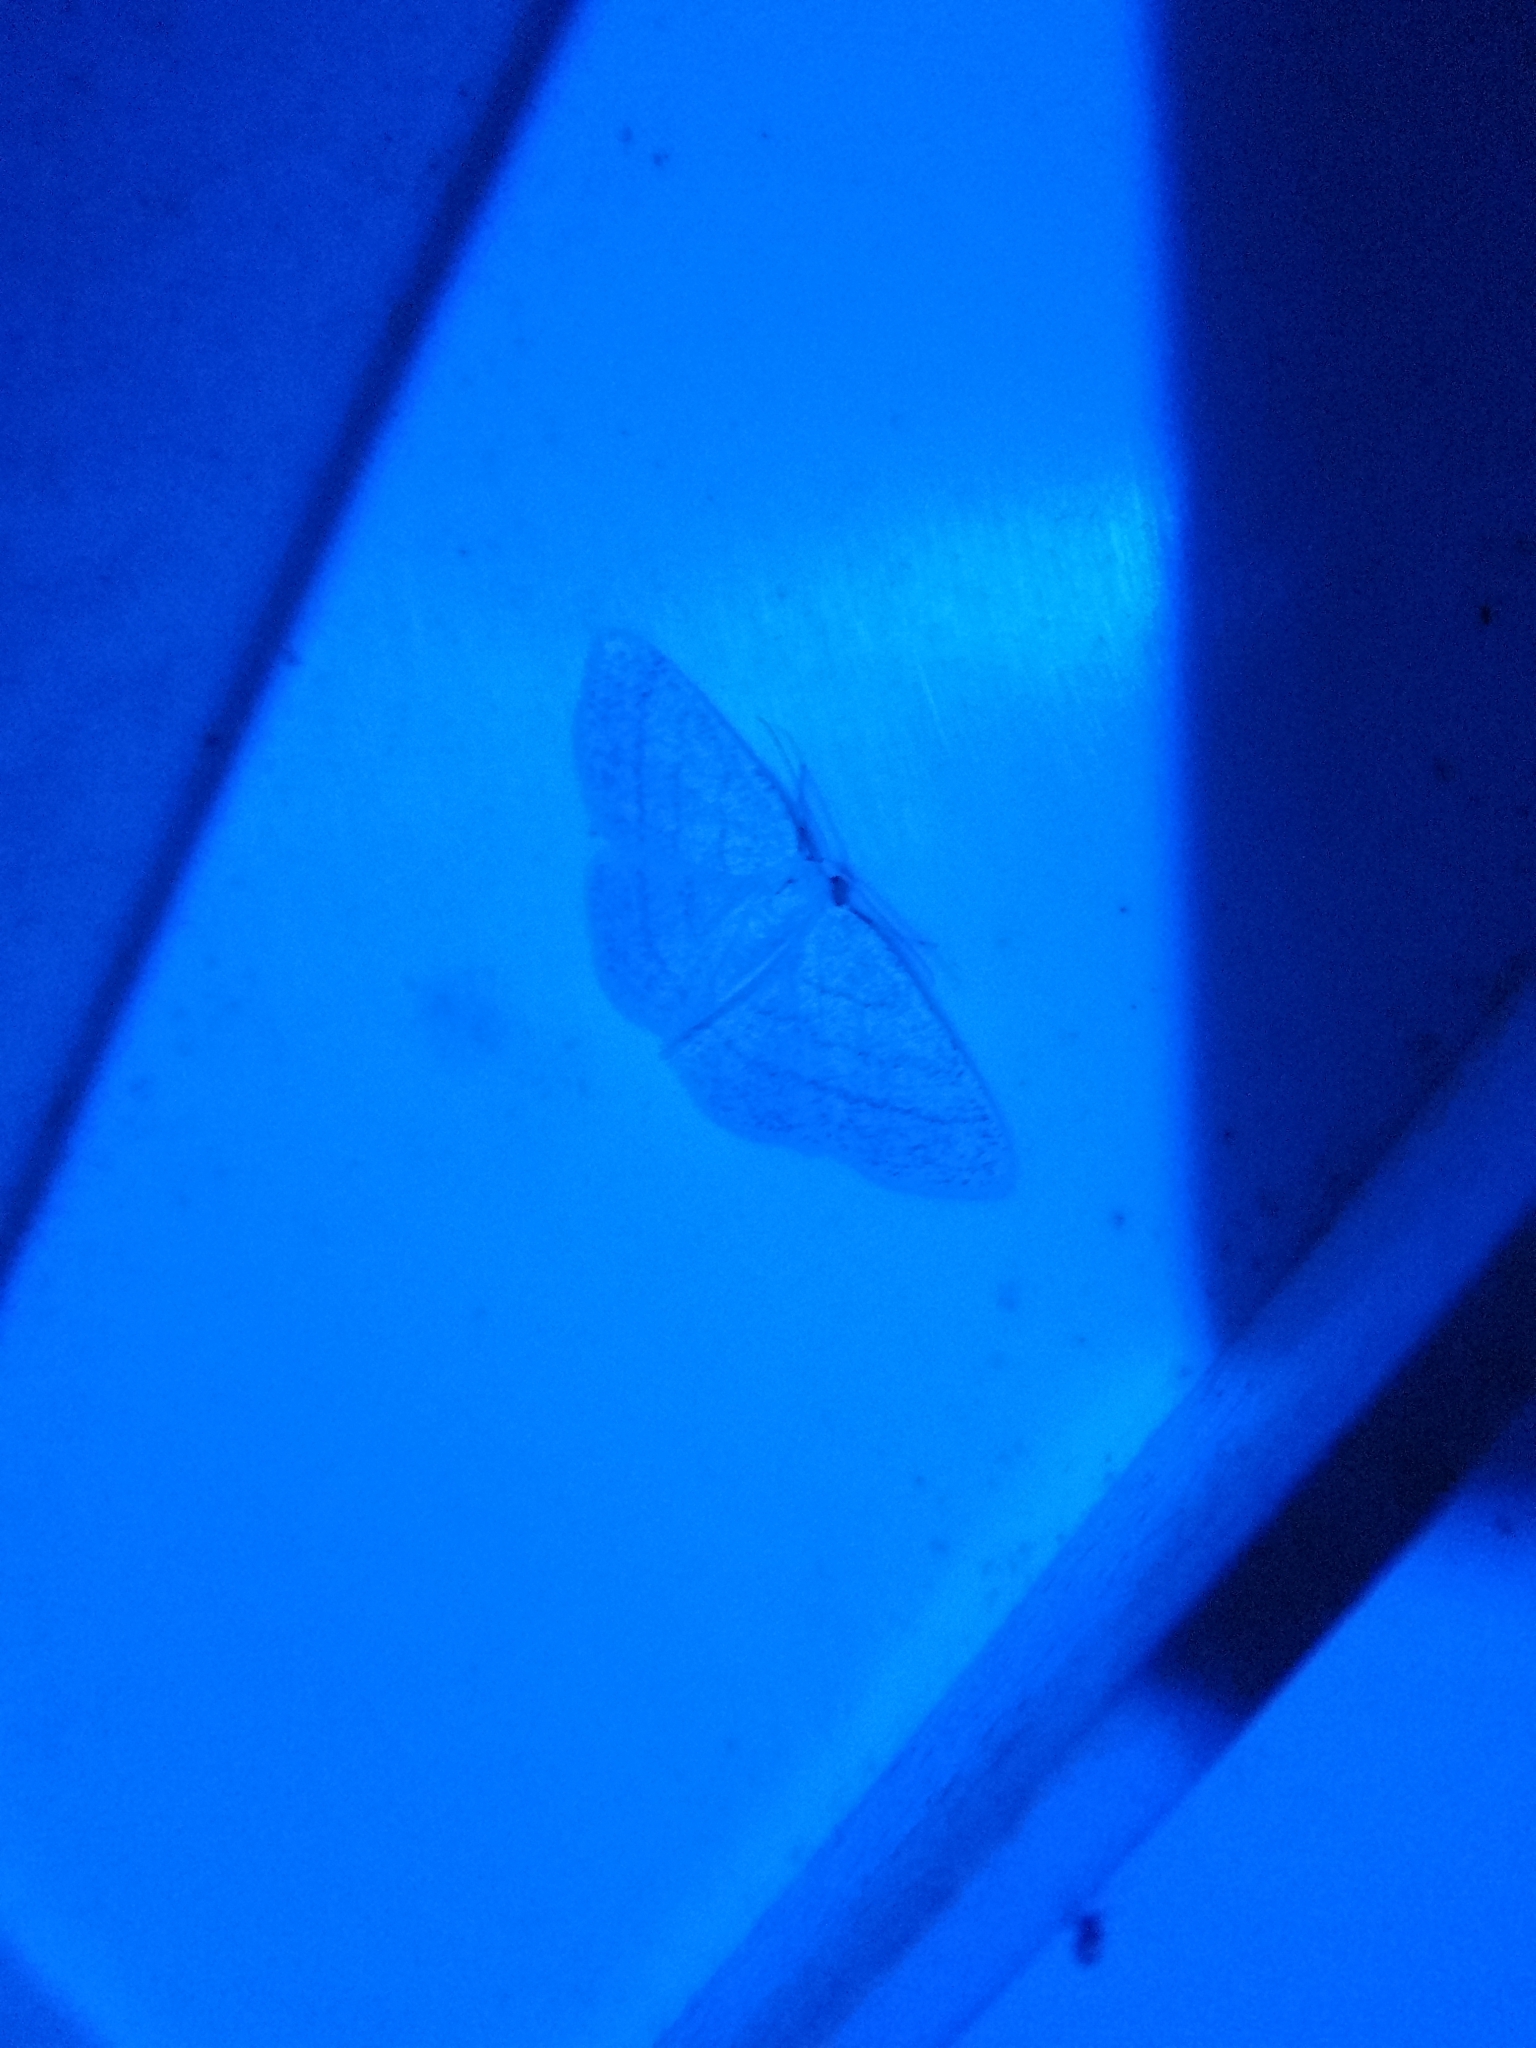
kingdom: Animalia
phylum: Arthropoda
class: Insecta
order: Lepidoptera
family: Geometridae
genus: Cabera
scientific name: Cabera pusaria
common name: Common white wave
